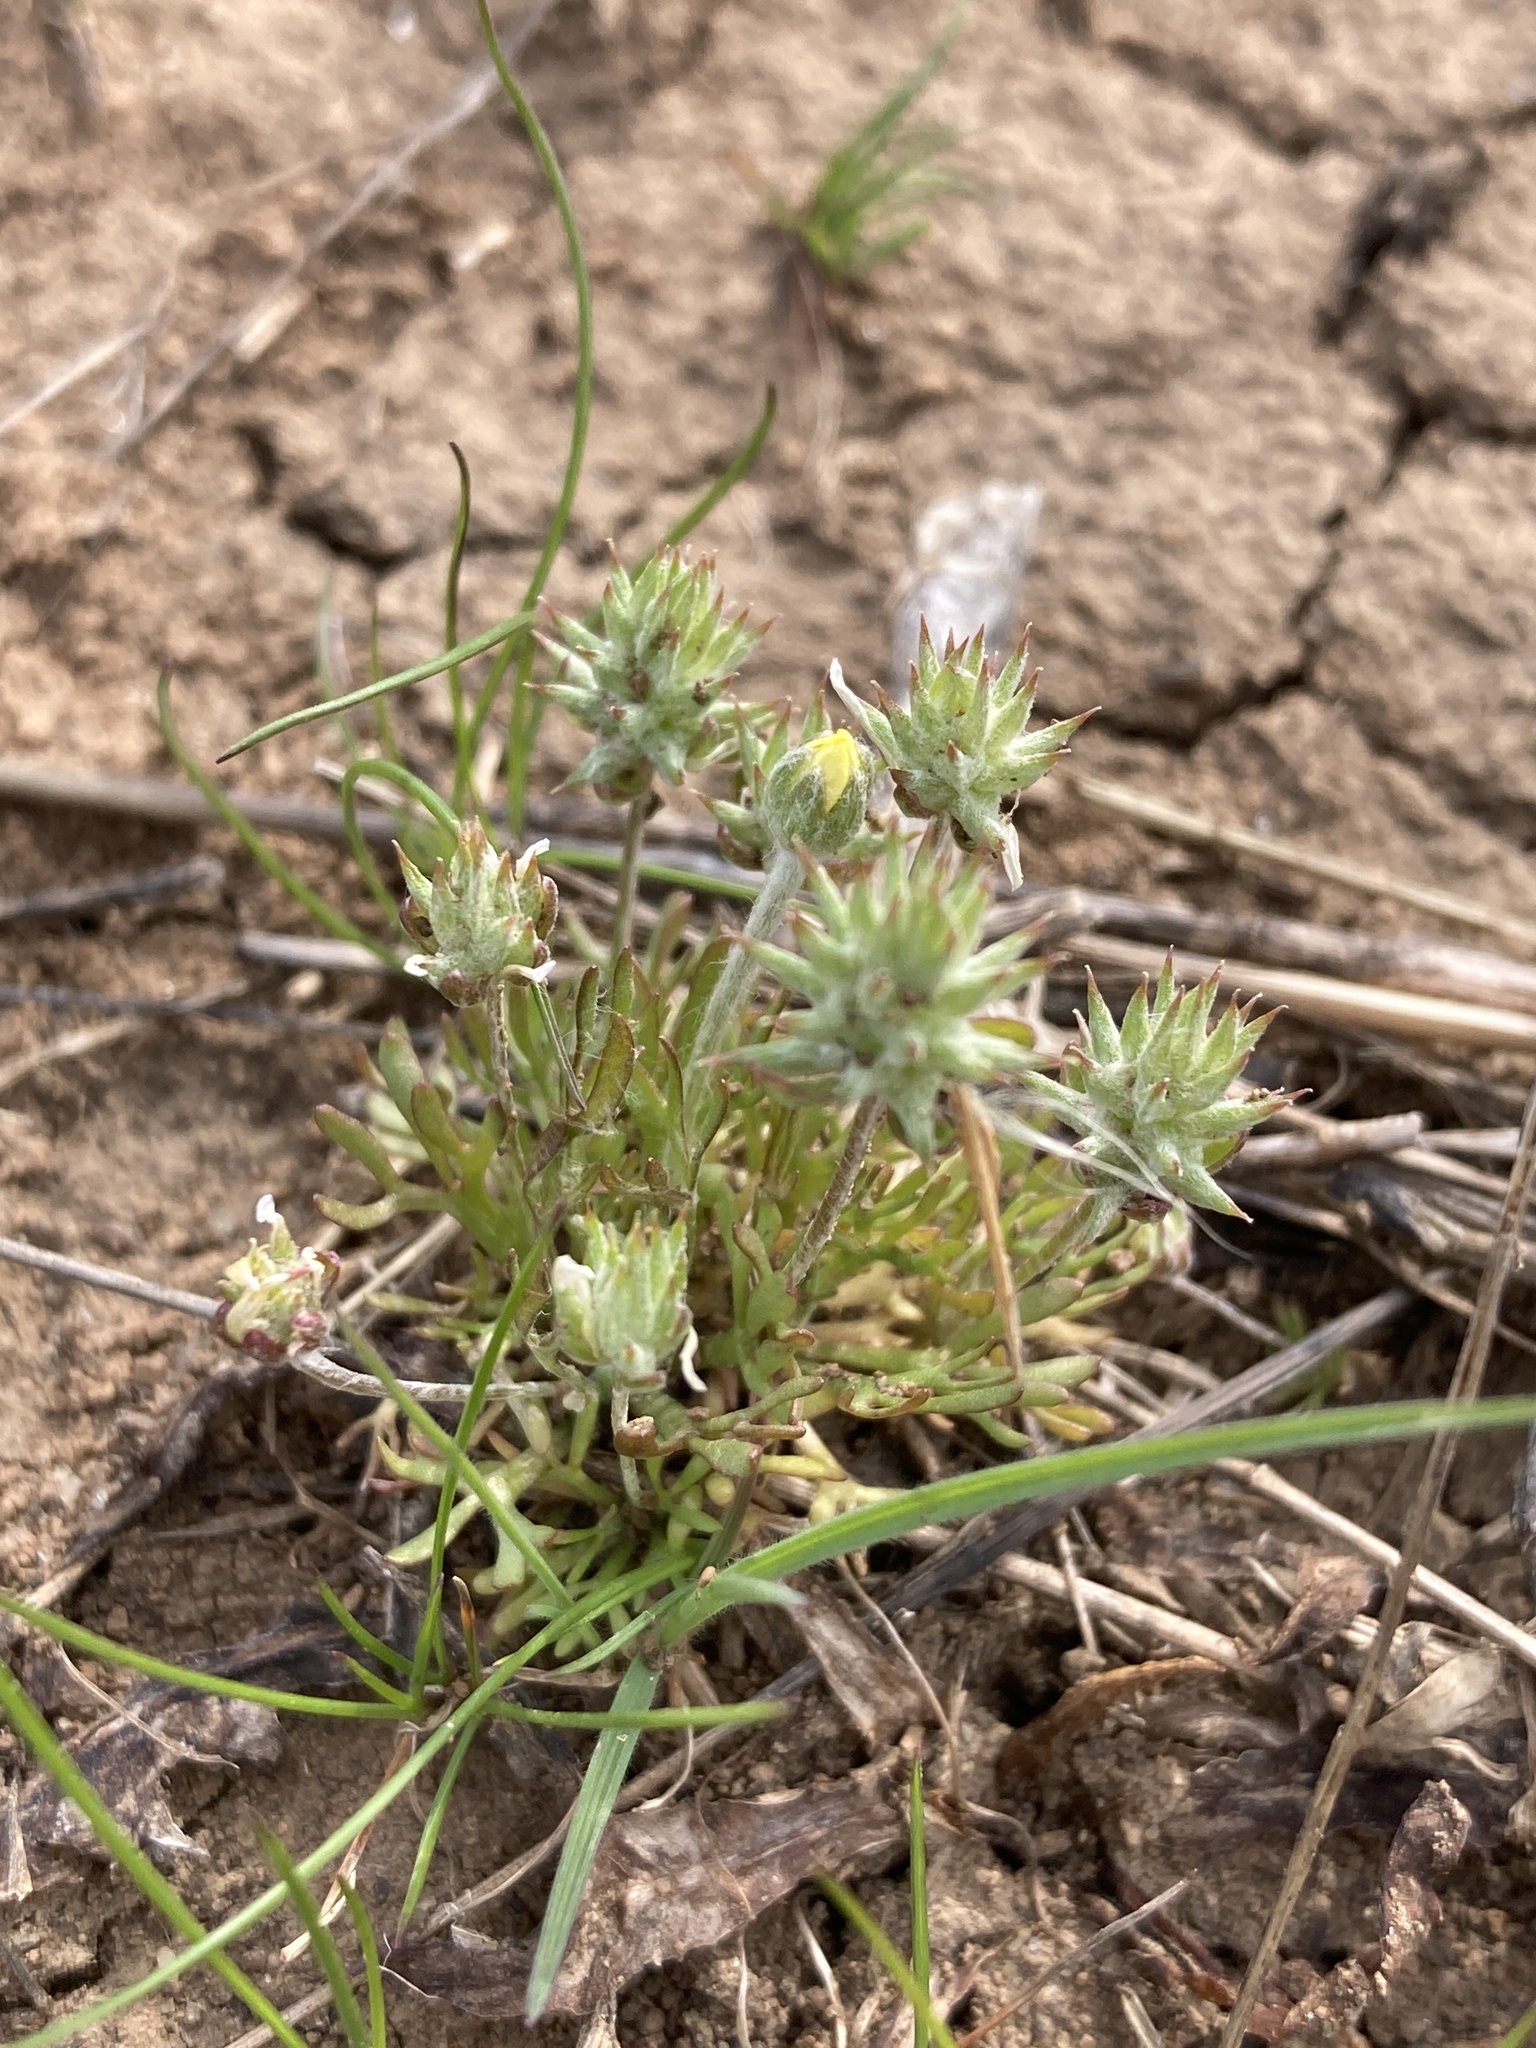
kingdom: Plantae
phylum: Tracheophyta
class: Magnoliopsida
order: Ranunculales
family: Ranunculaceae
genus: Ceratocephala
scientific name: Ceratocephala orthoceras
